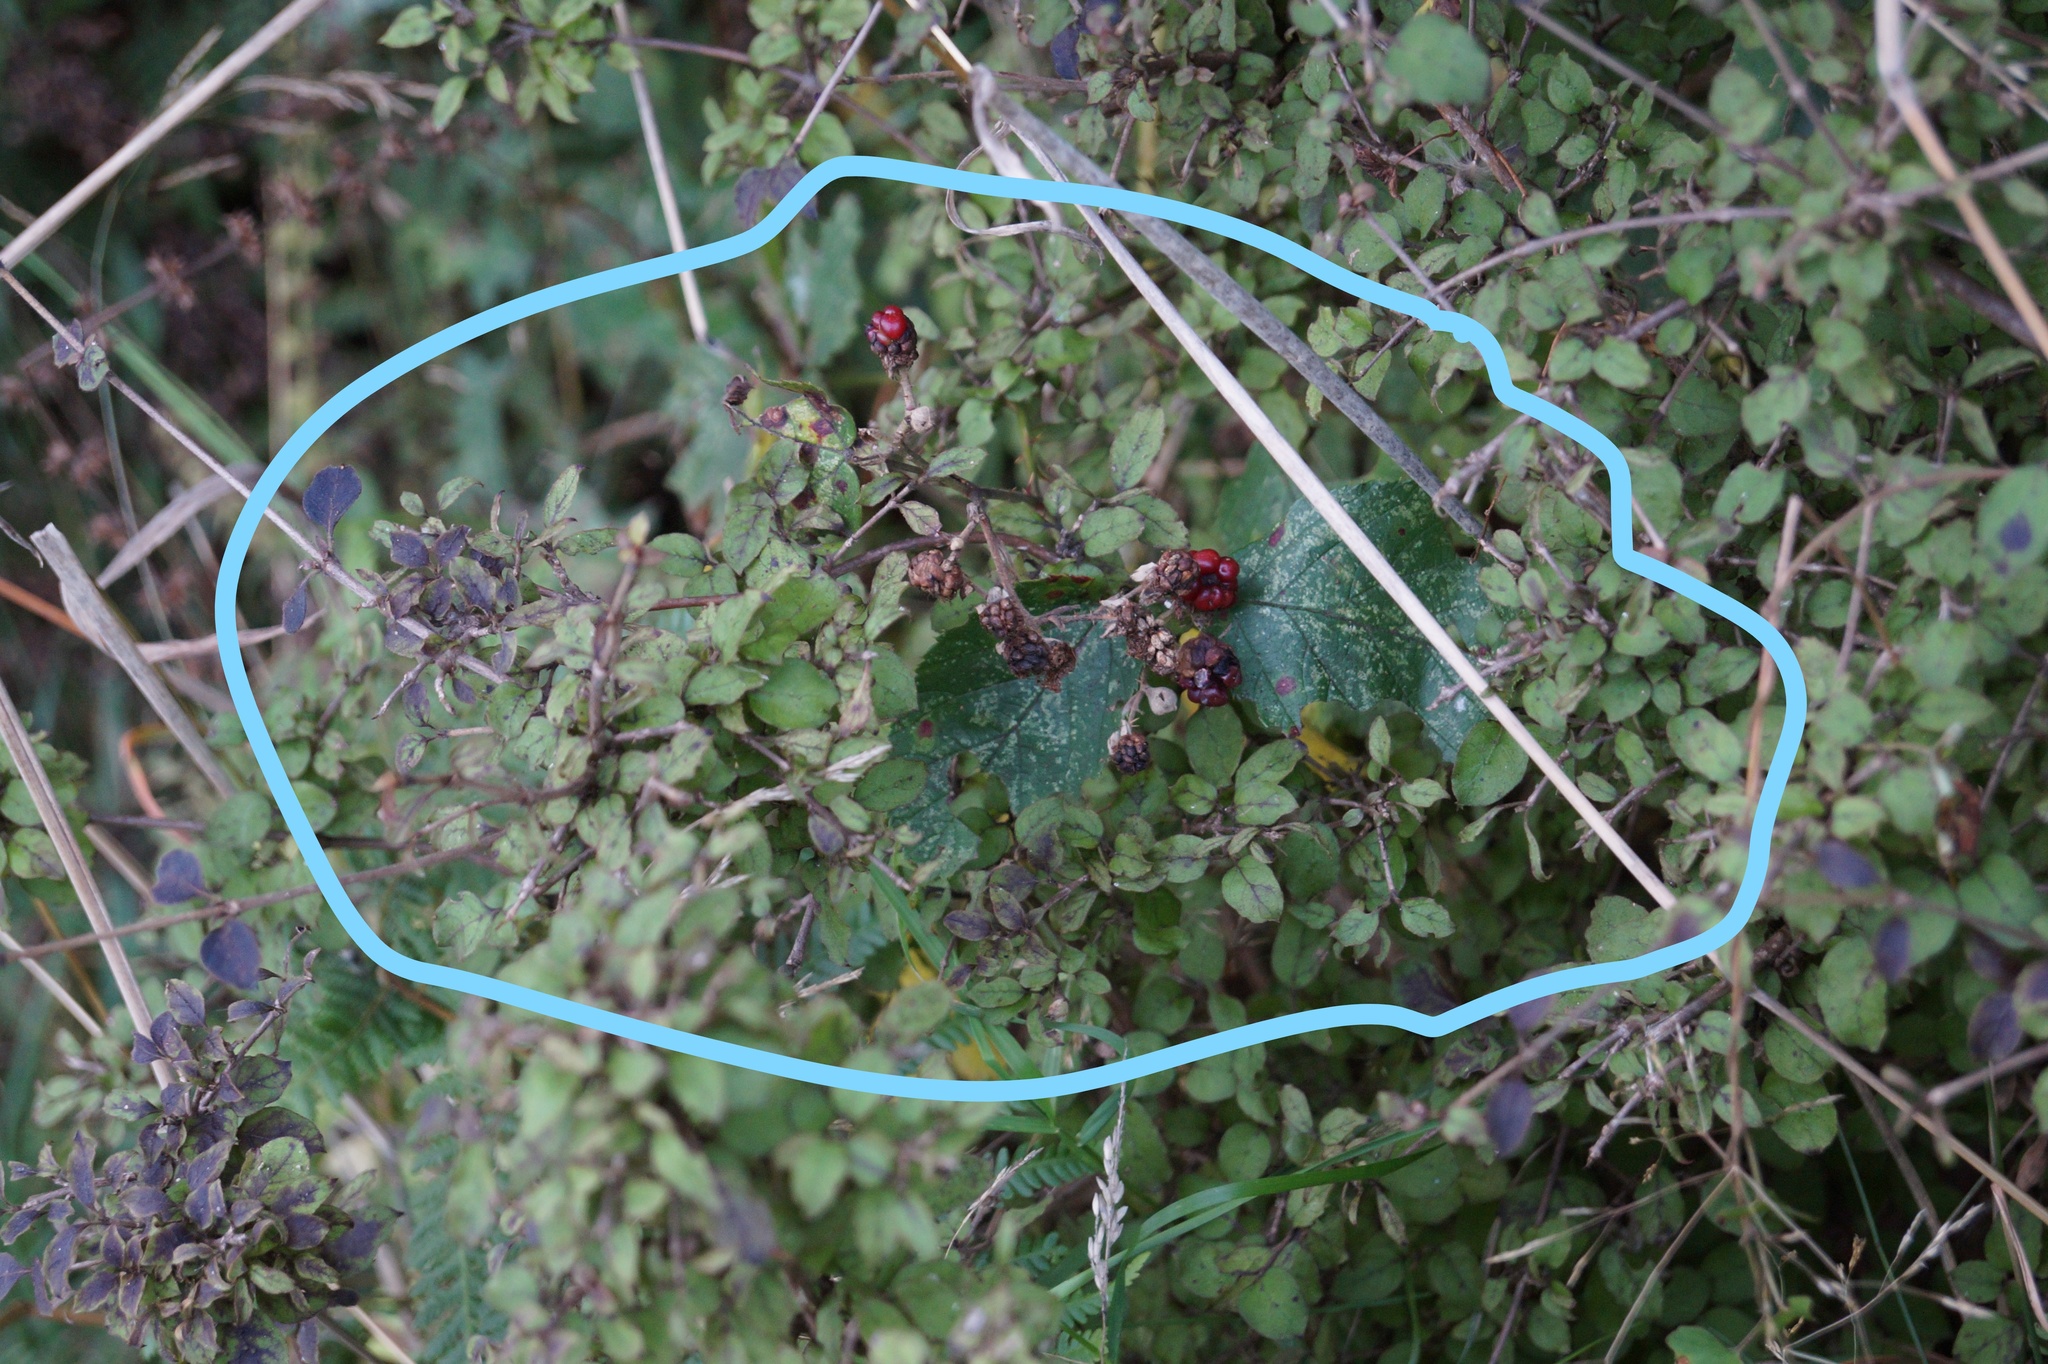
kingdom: Plantae
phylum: Tracheophyta
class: Magnoliopsida
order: Rosales
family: Rosaceae
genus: Rubus
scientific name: Rubus
